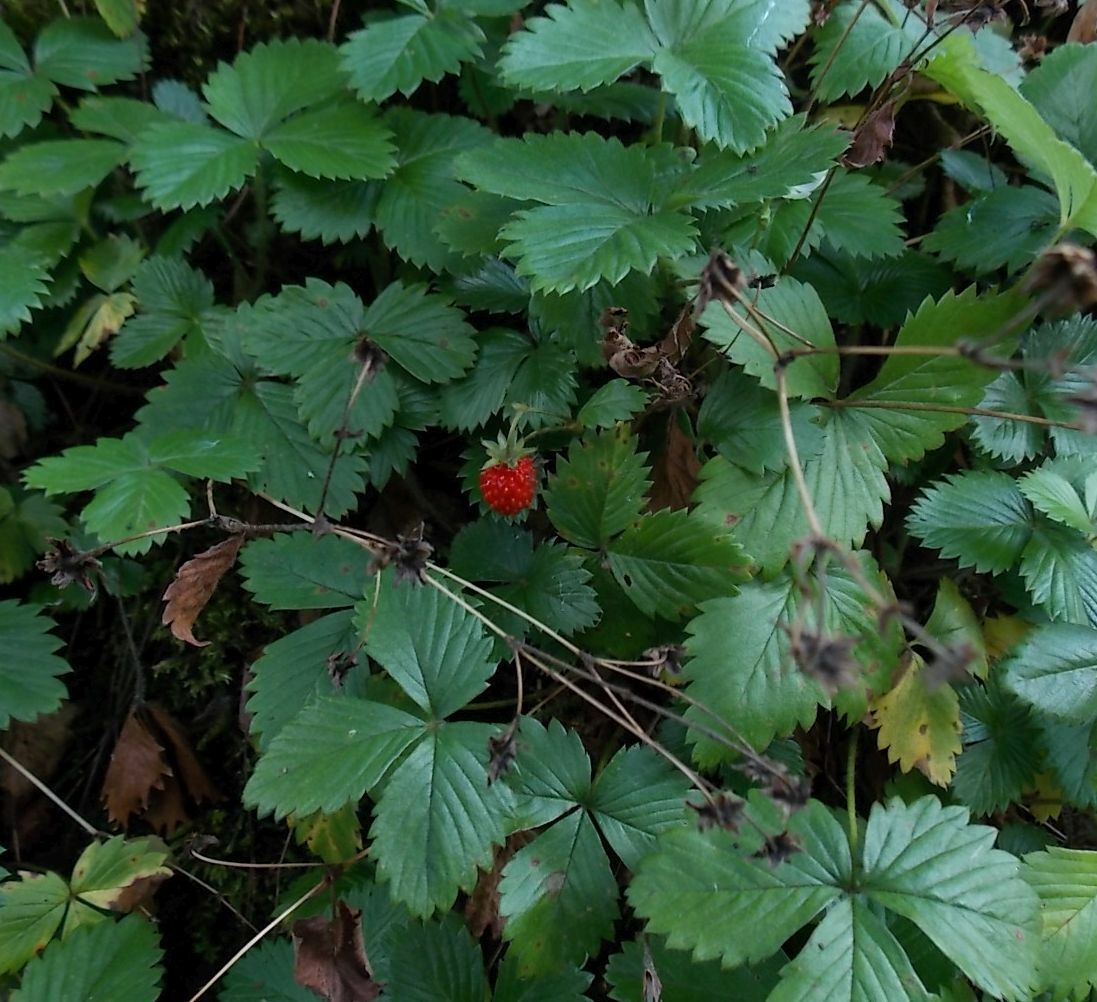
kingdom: Plantae
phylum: Tracheophyta
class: Magnoliopsida
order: Rosales
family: Rosaceae
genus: Fragaria
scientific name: Fragaria vesca
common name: Wild strawberry
